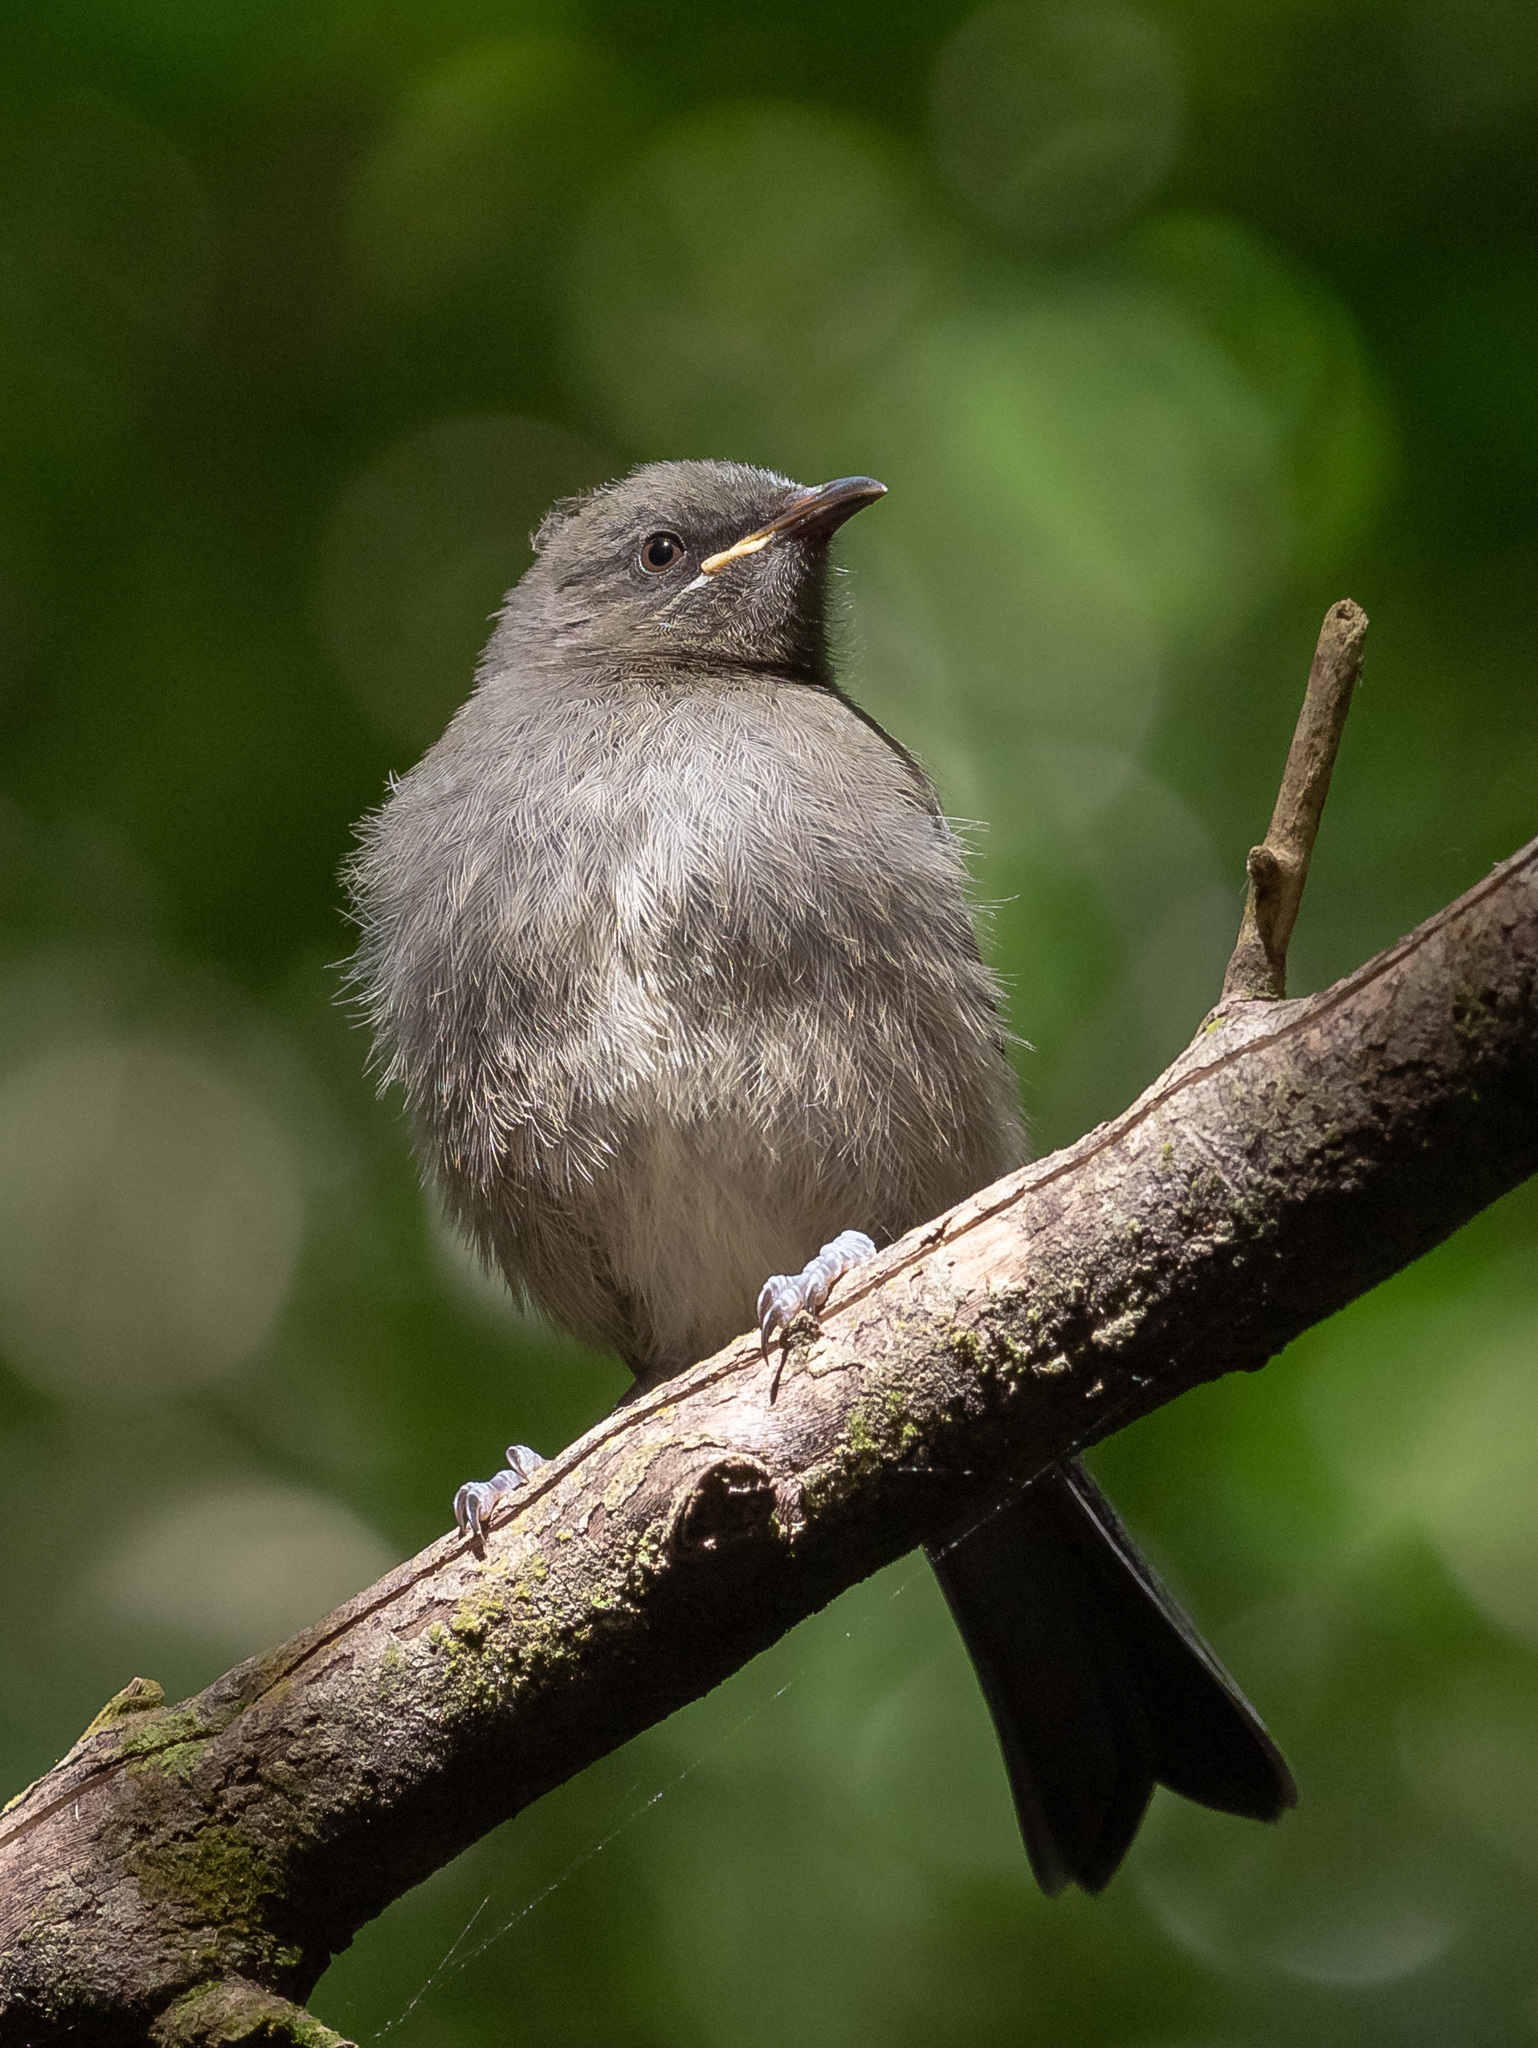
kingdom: Animalia
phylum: Chordata
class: Aves
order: Passeriformes
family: Meliphagidae
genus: Anthornis
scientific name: Anthornis melanura
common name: New zealand bellbird
